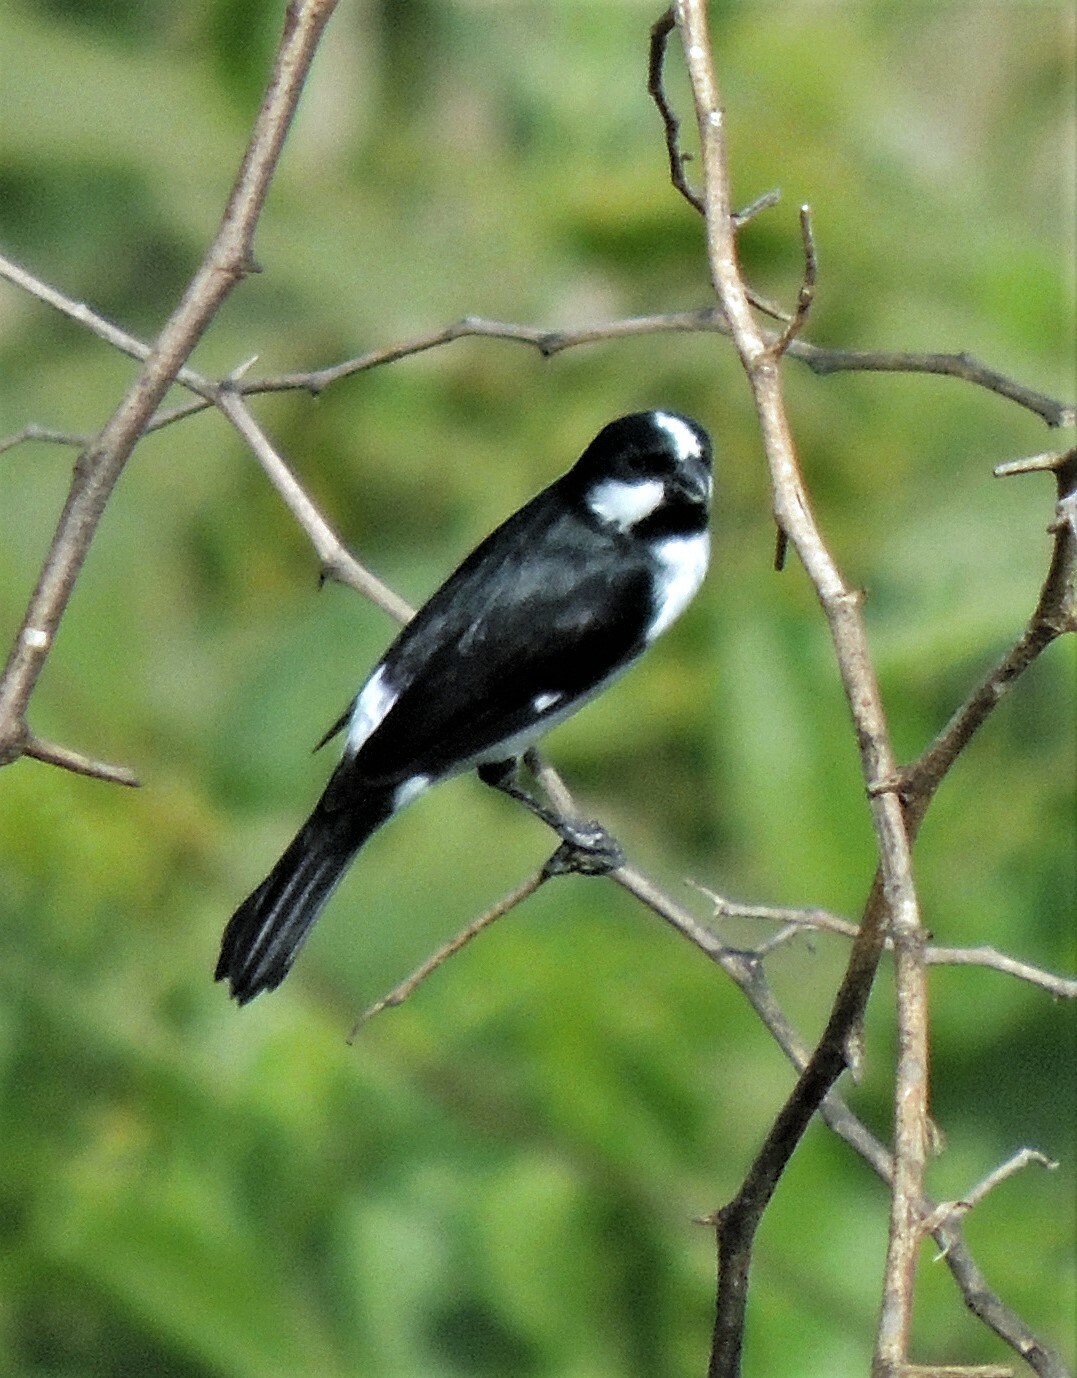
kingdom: Animalia
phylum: Chordata
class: Aves
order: Passeriformes
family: Thraupidae
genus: Sporophila
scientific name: Sporophila lineola
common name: Lined seedeater
